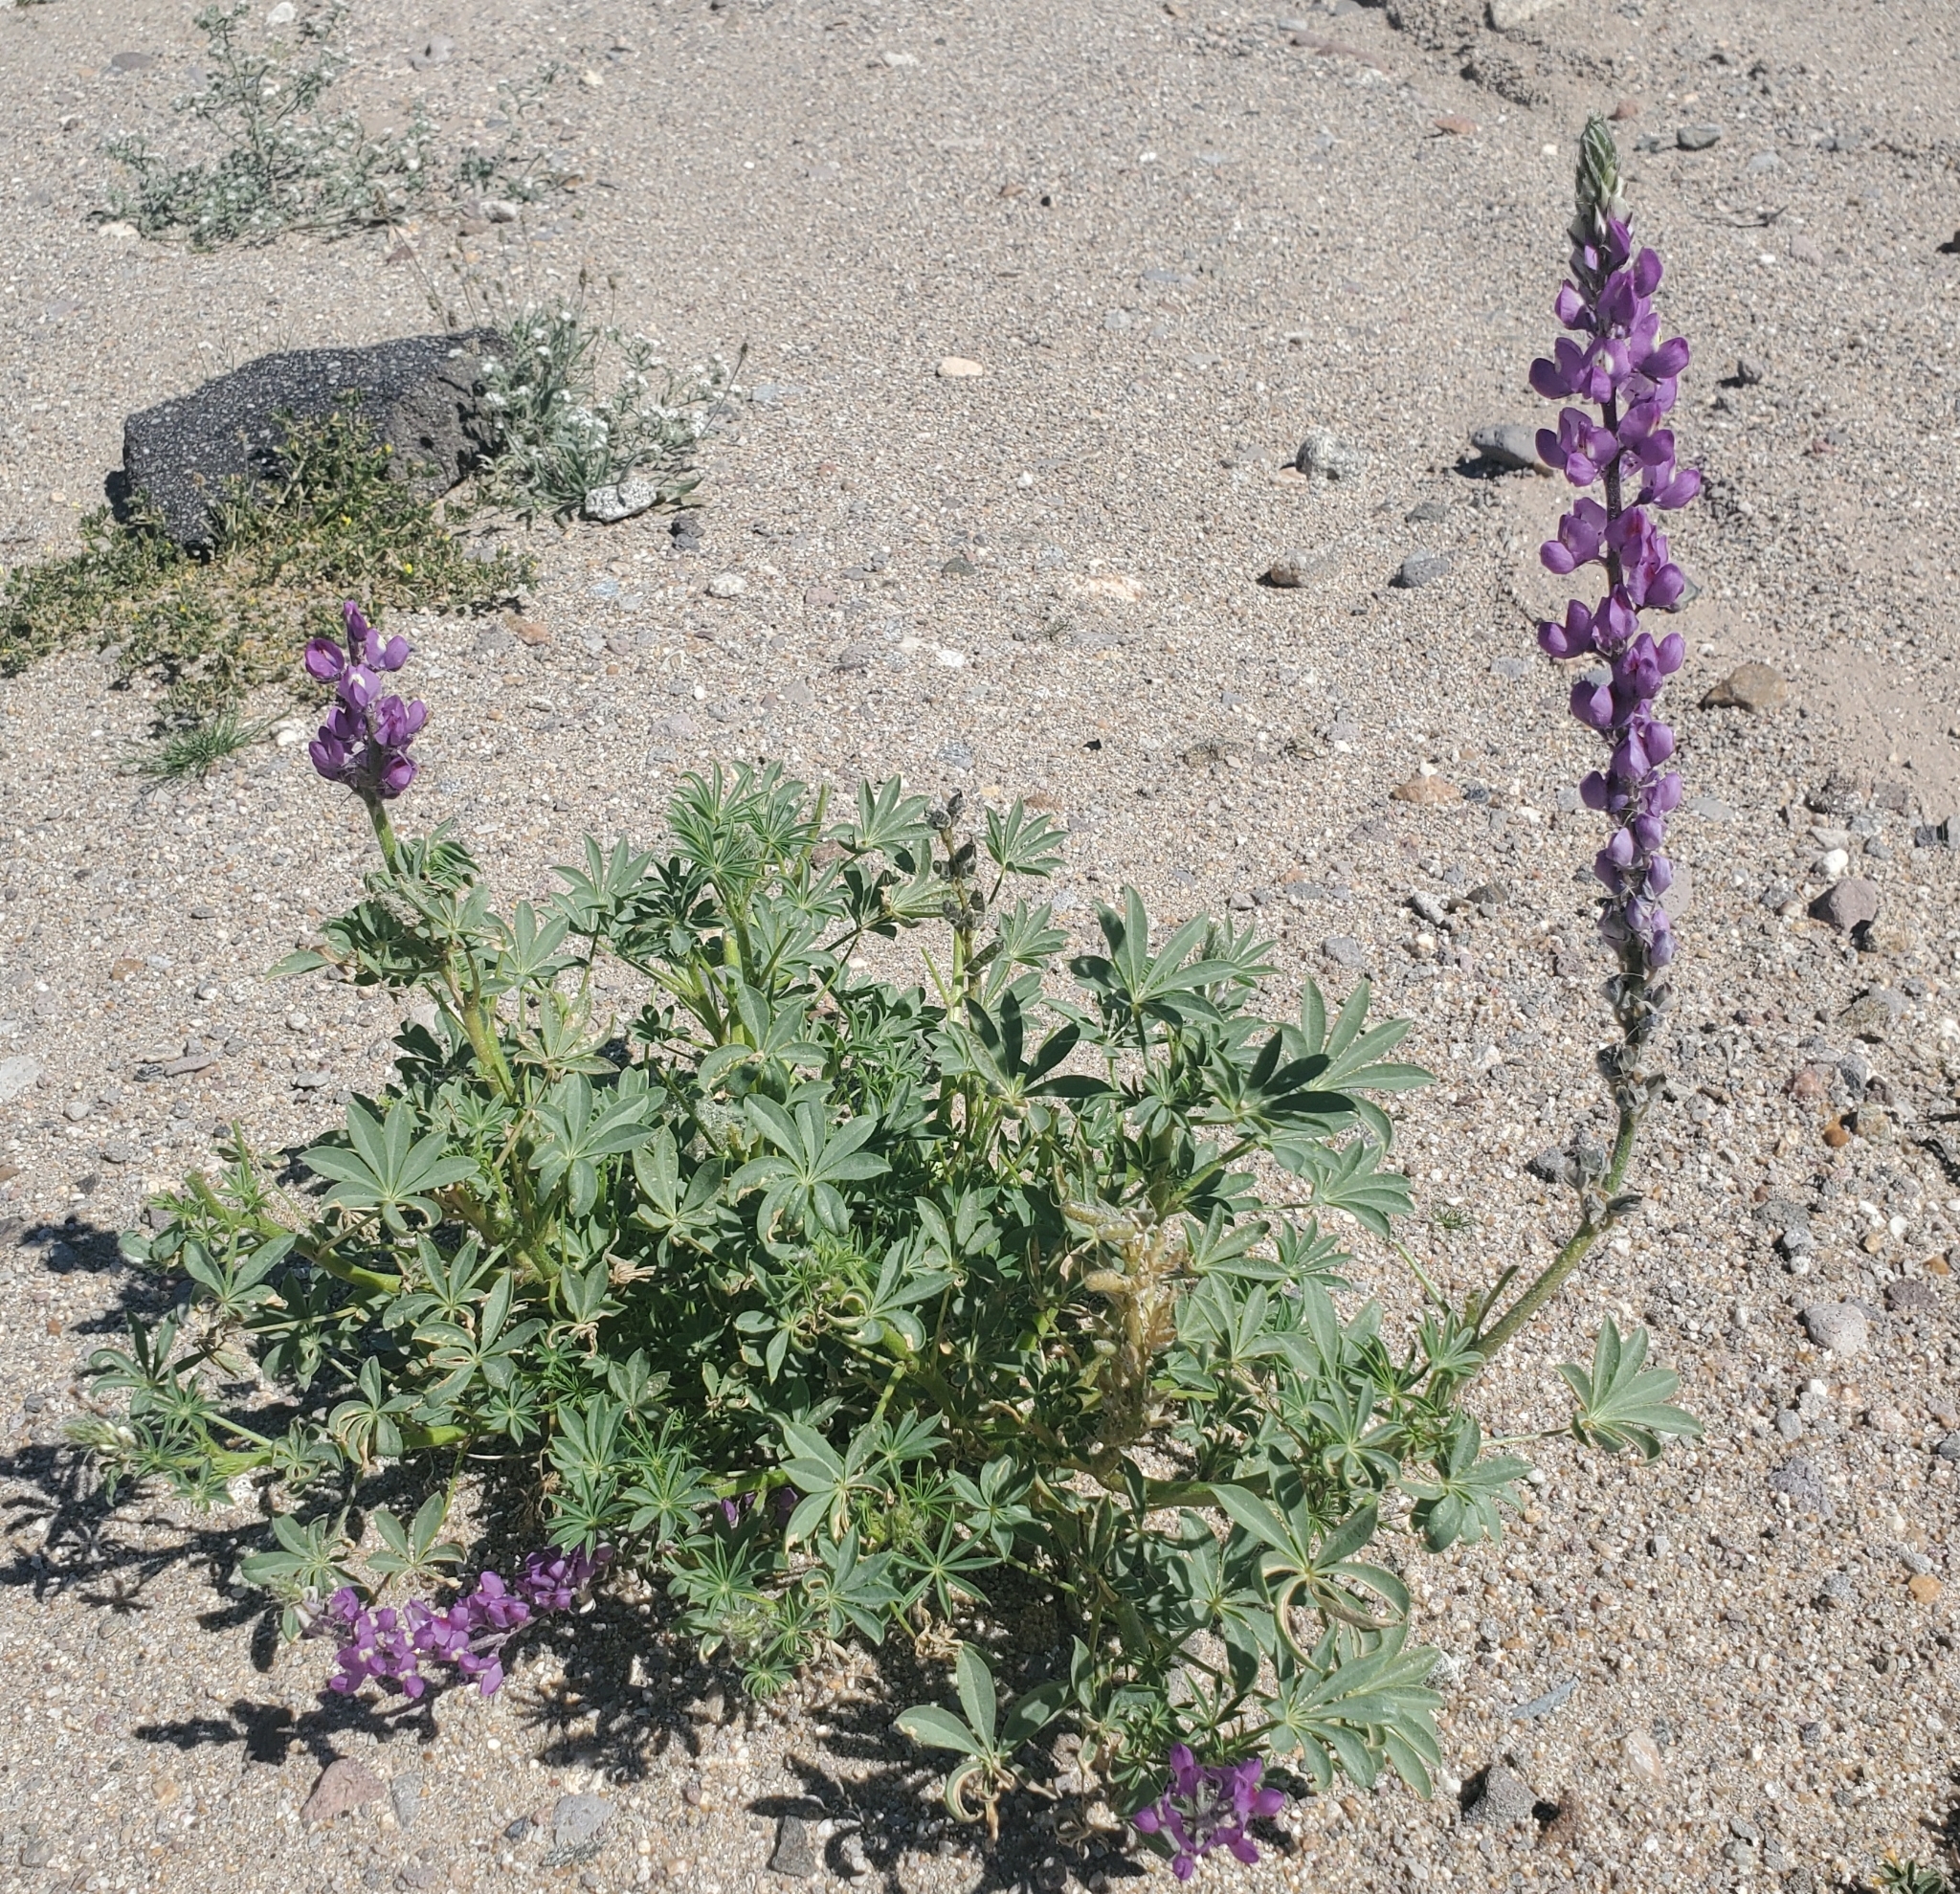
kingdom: Plantae
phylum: Tracheophyta
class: Magnoliopsida
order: Fabales
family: Fabaceae
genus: Lupinus
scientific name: Lupinus arizonicus
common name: Arizona lupine
